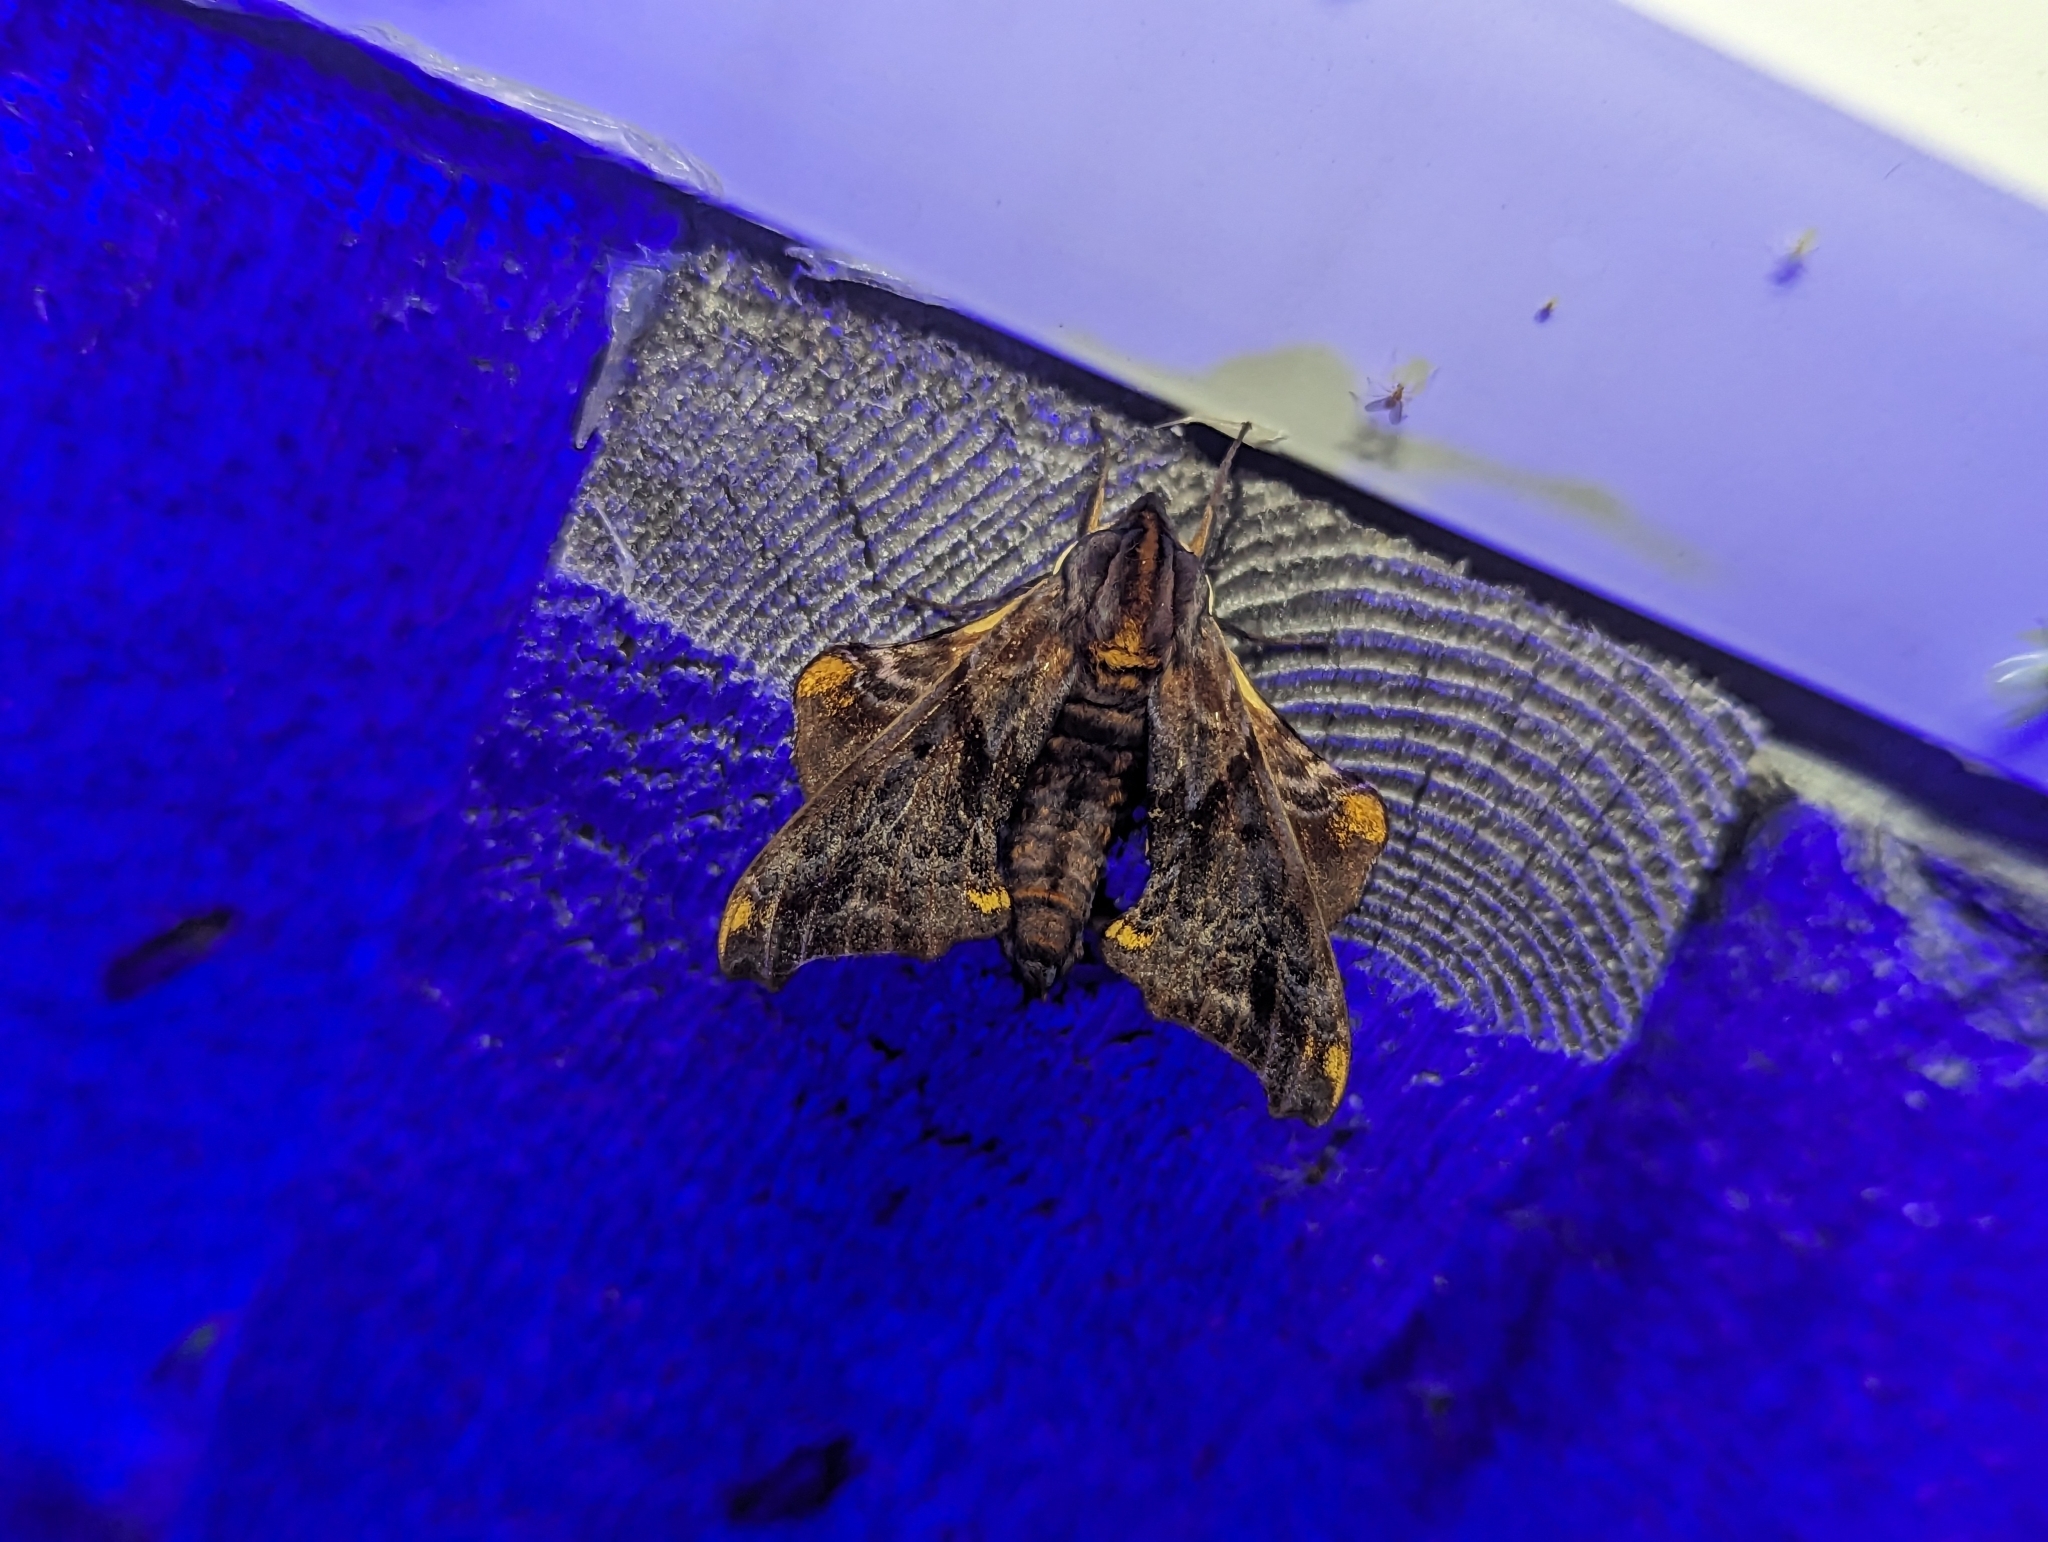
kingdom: Animalia
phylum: Arthropoda
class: Insecta
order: Lepidoptera
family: Sphingidae
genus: Paonias
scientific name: Paonias myops
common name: Small-eyed sphinx
